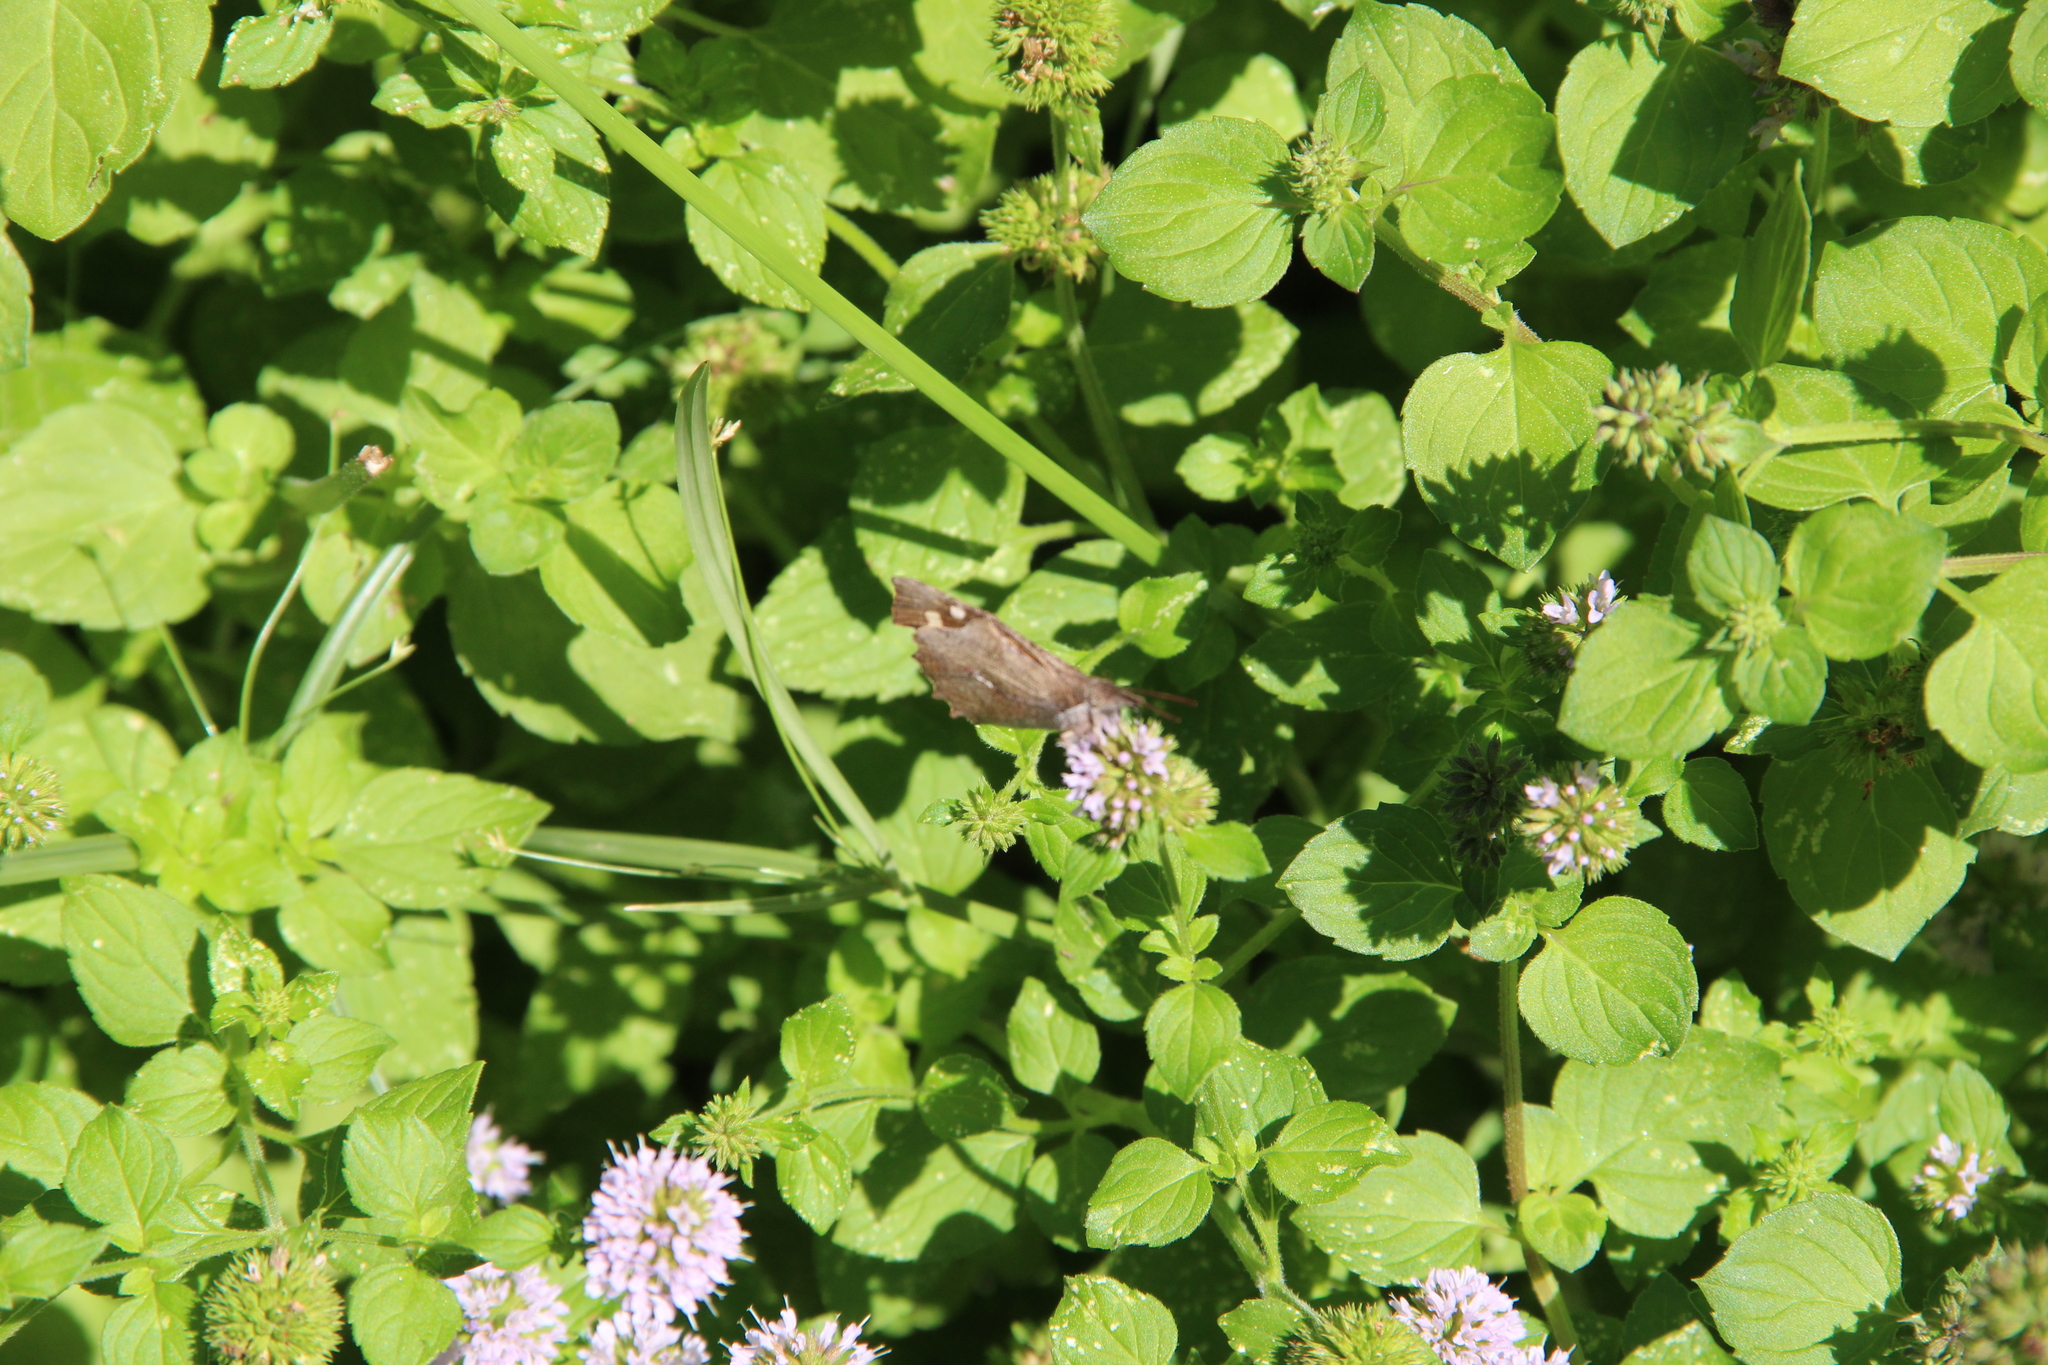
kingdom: Animalia
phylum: Arthropoda
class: Insecta
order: Lepidoptera
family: Nymphalidae
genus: Libythea
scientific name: Libythea celtis
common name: Nettle-tree butterfly
